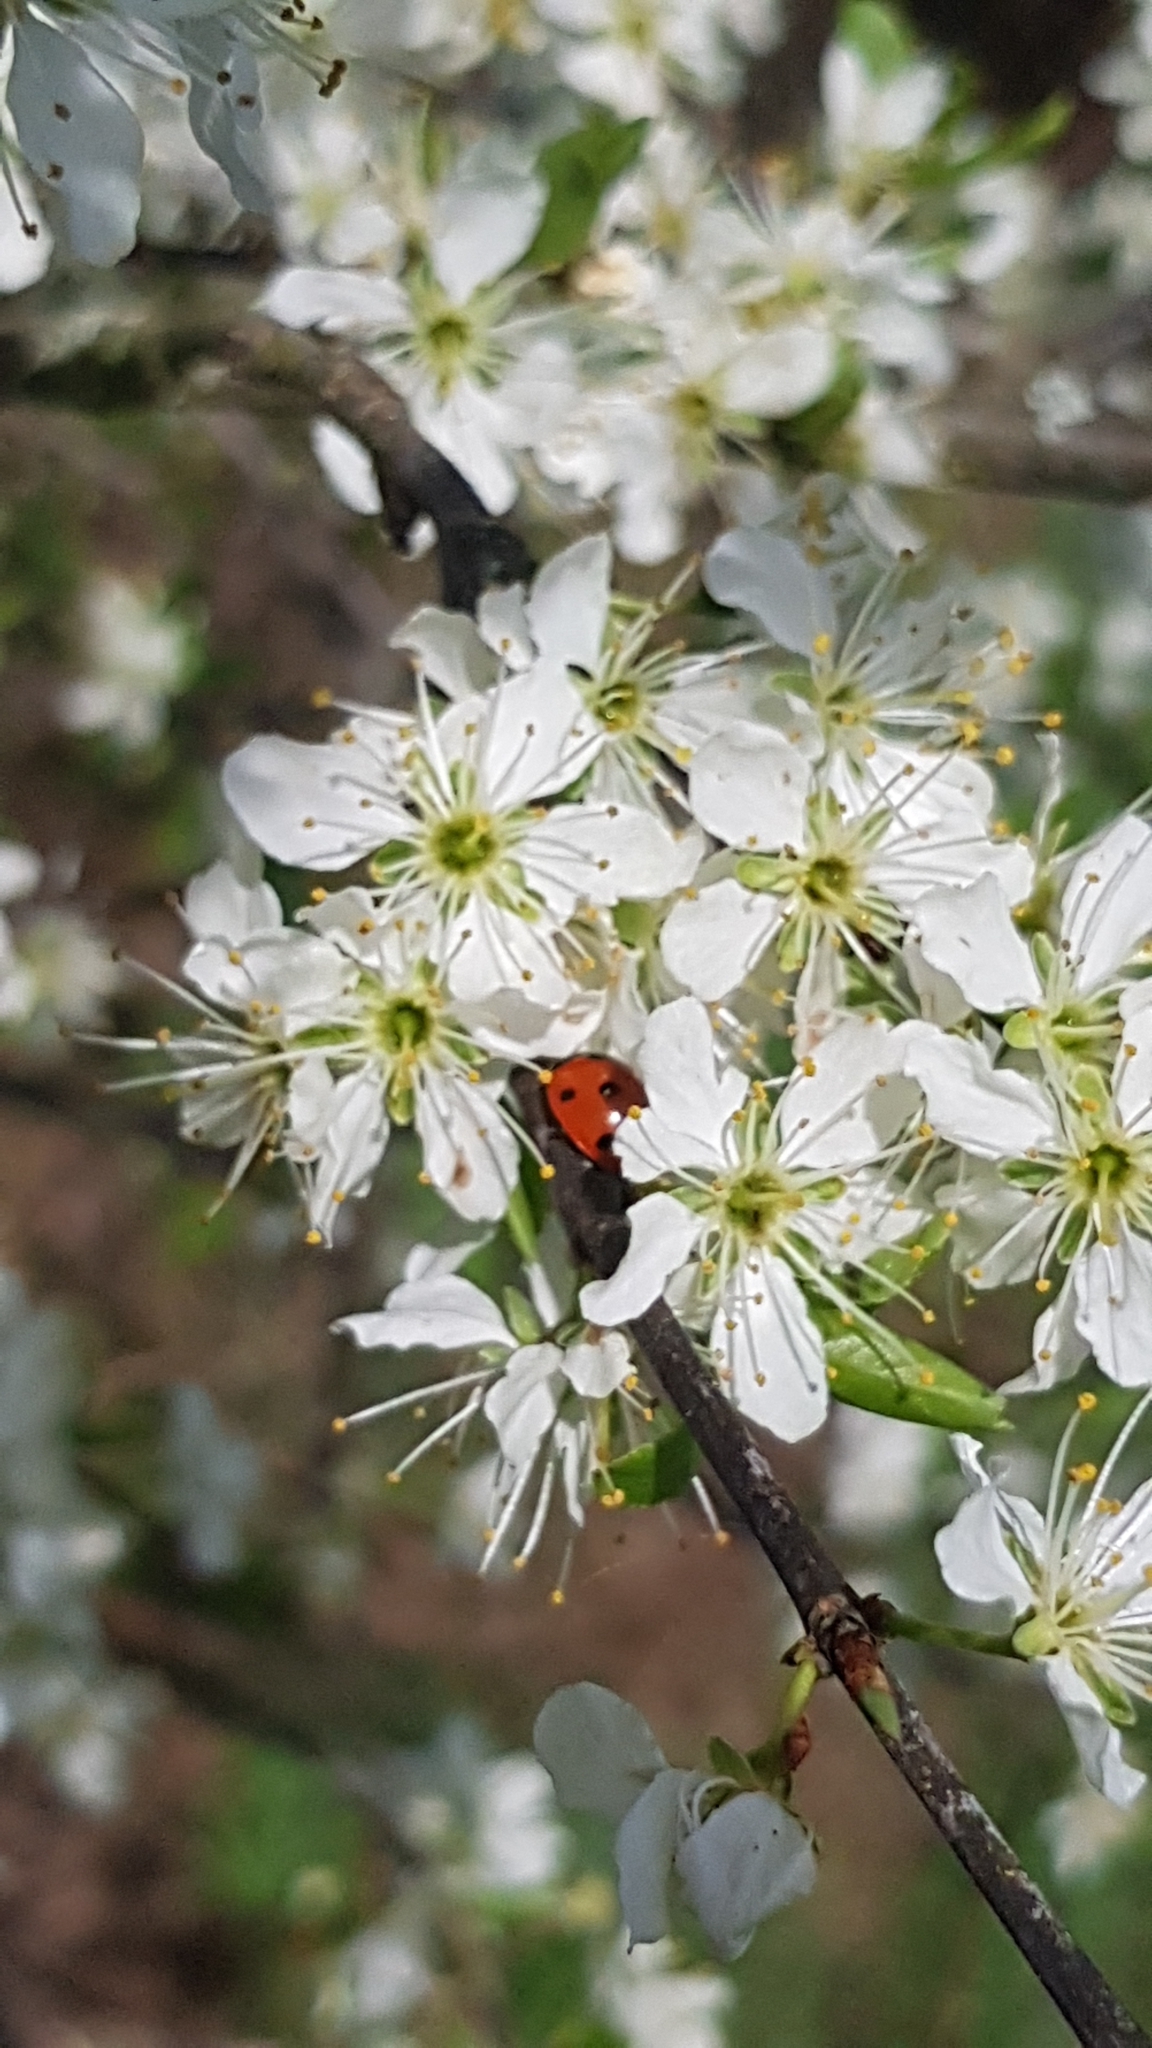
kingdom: Animalia
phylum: Arthropoda
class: Insecta
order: Coleoptera
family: Coccinellidae
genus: Coccinella
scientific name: Coccinella septempunctata
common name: Sevenspotted lady beetle
